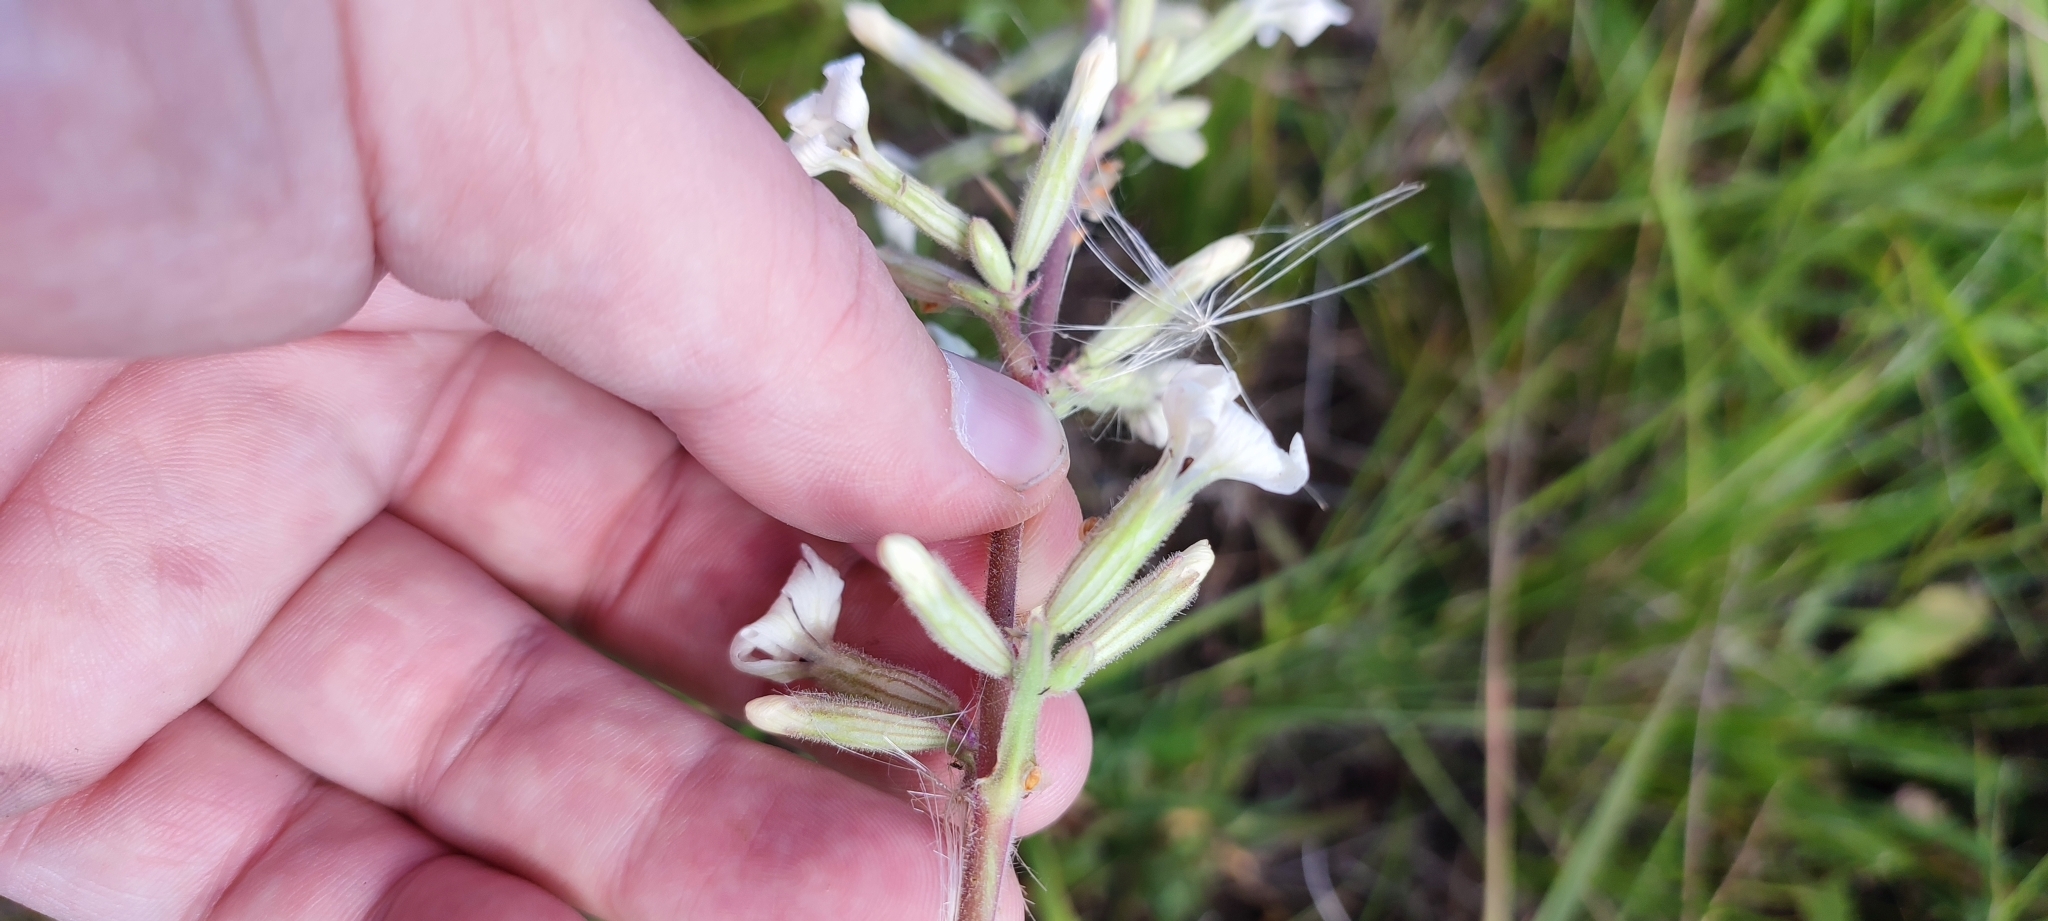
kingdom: Plantae
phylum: Tracheophyta
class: Magnoliopsida
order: Caryophyllales
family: Caryophyllaceae
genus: Silene
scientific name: Silene viscosa
